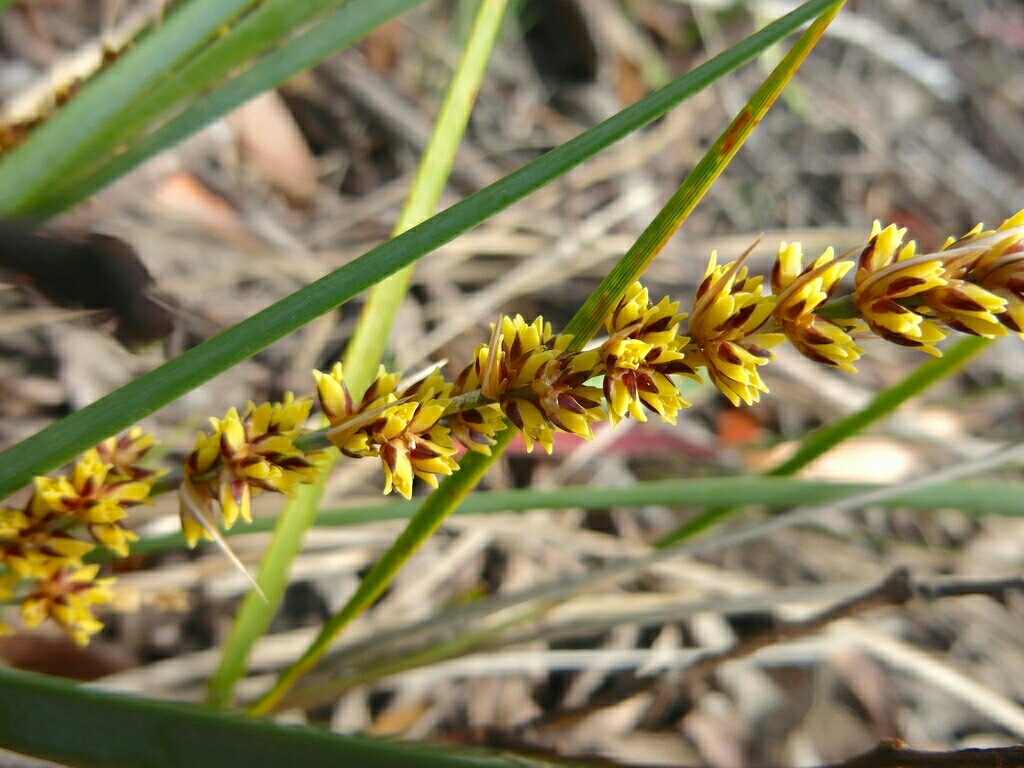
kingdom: Plantae
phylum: Tracheophyta
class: Liliopsida
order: Asparagales
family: Asparagaceae
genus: Lomandra
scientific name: Lomandra longifolia
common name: Longleaf mat-rush
